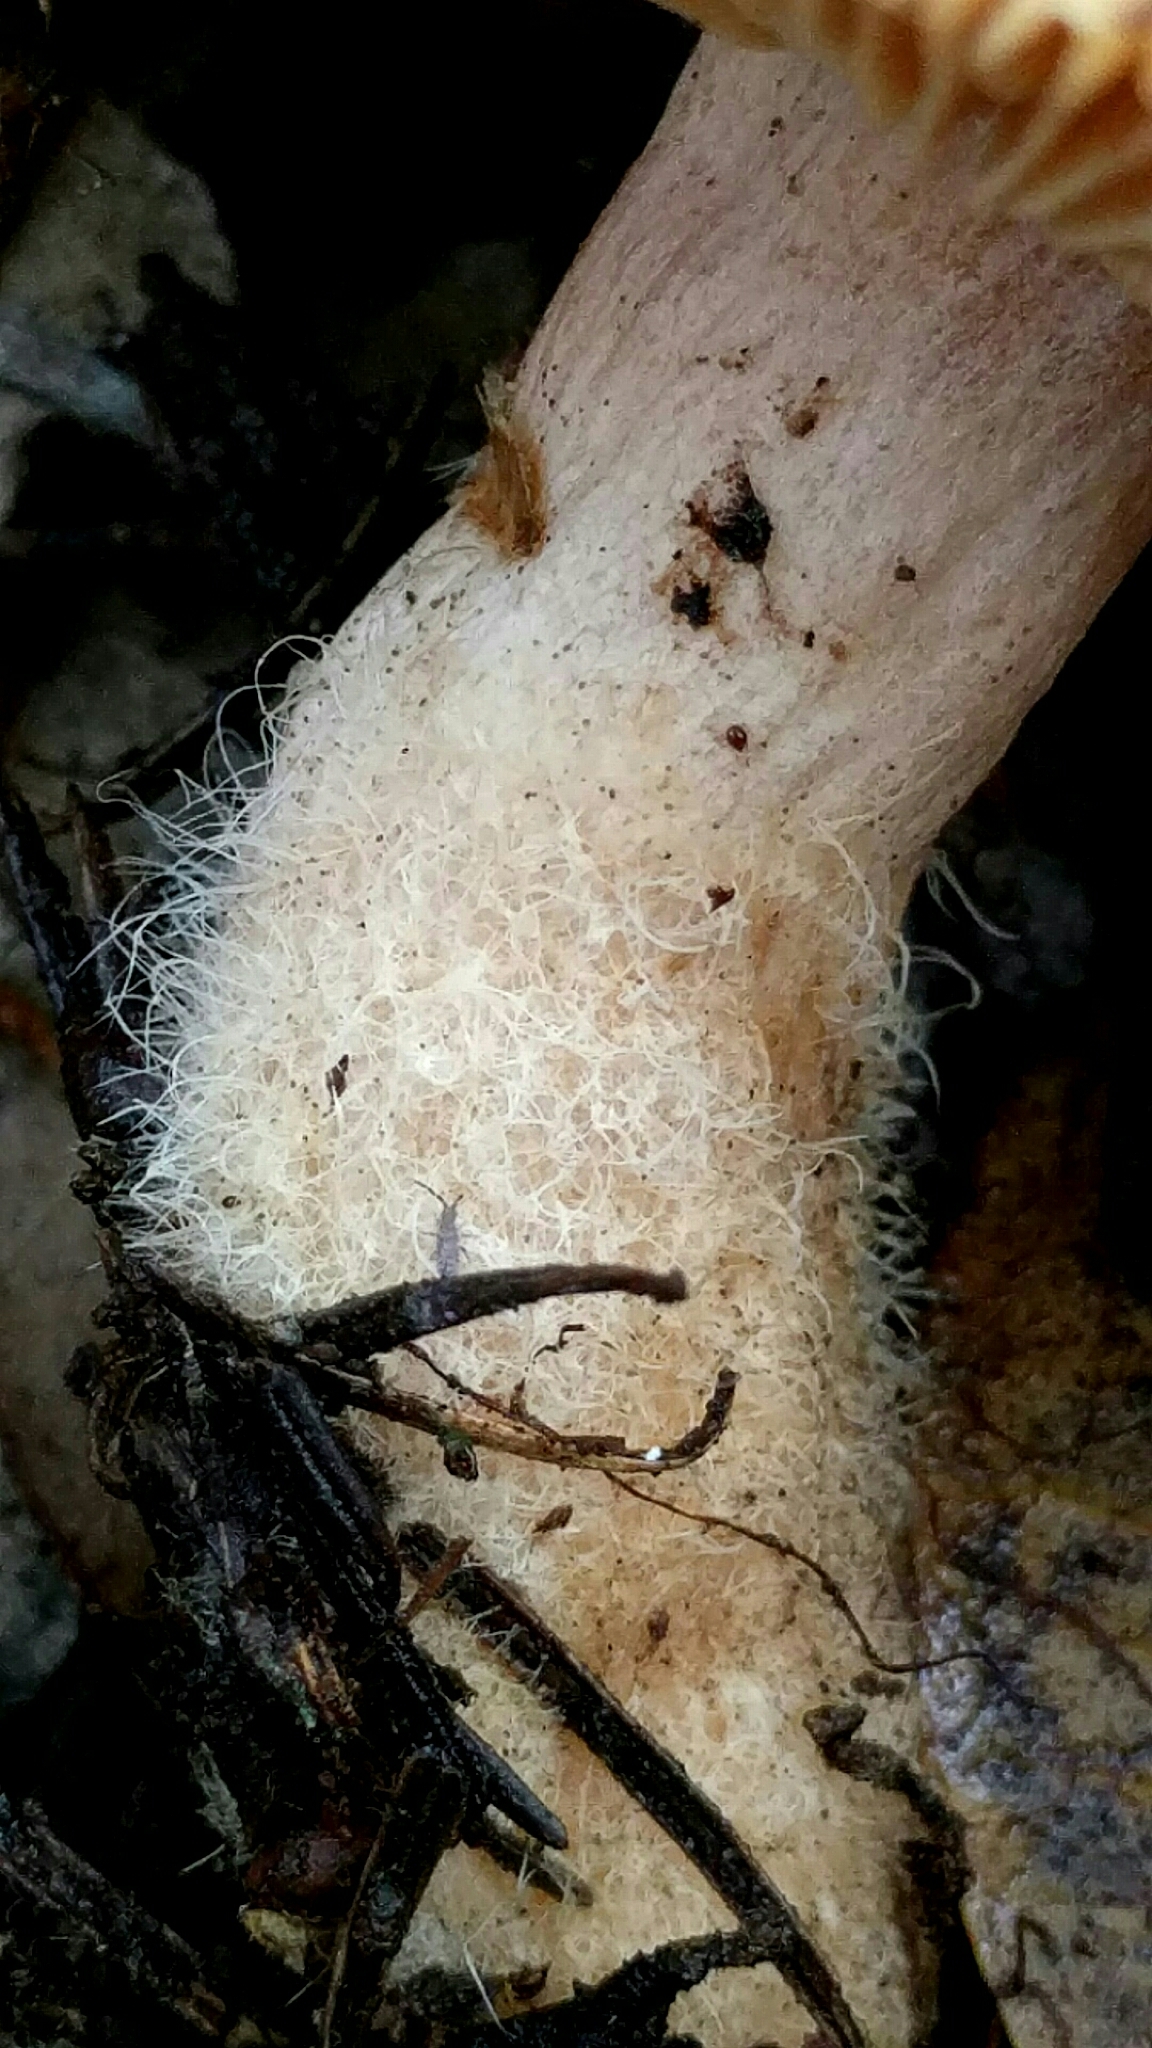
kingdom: Fungi
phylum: Basidiomycota
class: Agaricomycetes
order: Russulales
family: Russulaceae
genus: Lactarius
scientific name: Lactarius
